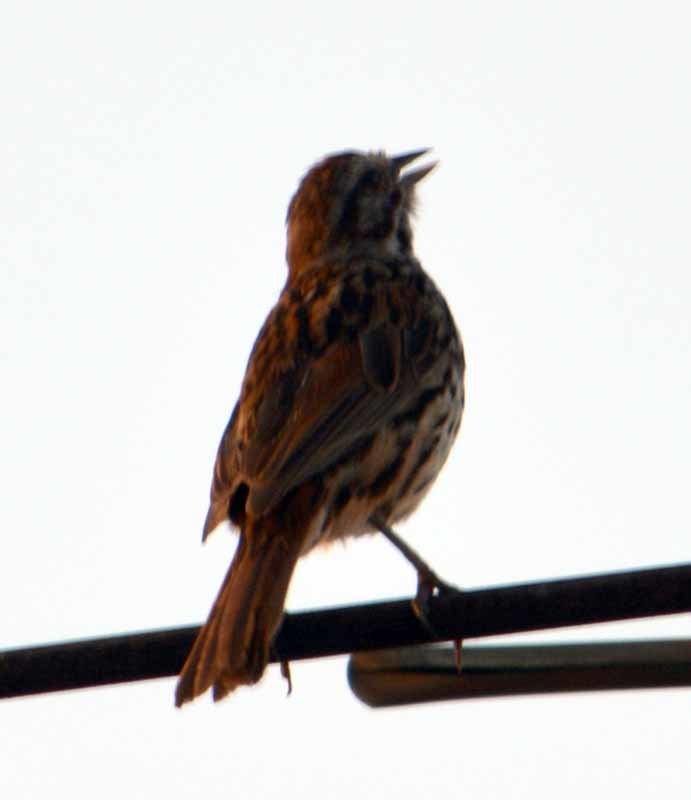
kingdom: Animalia
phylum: Chordata
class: Aves
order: Passeriformes
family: Passerellidae
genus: Melospiza
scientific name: Melospiza melodia
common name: Song sparrow
